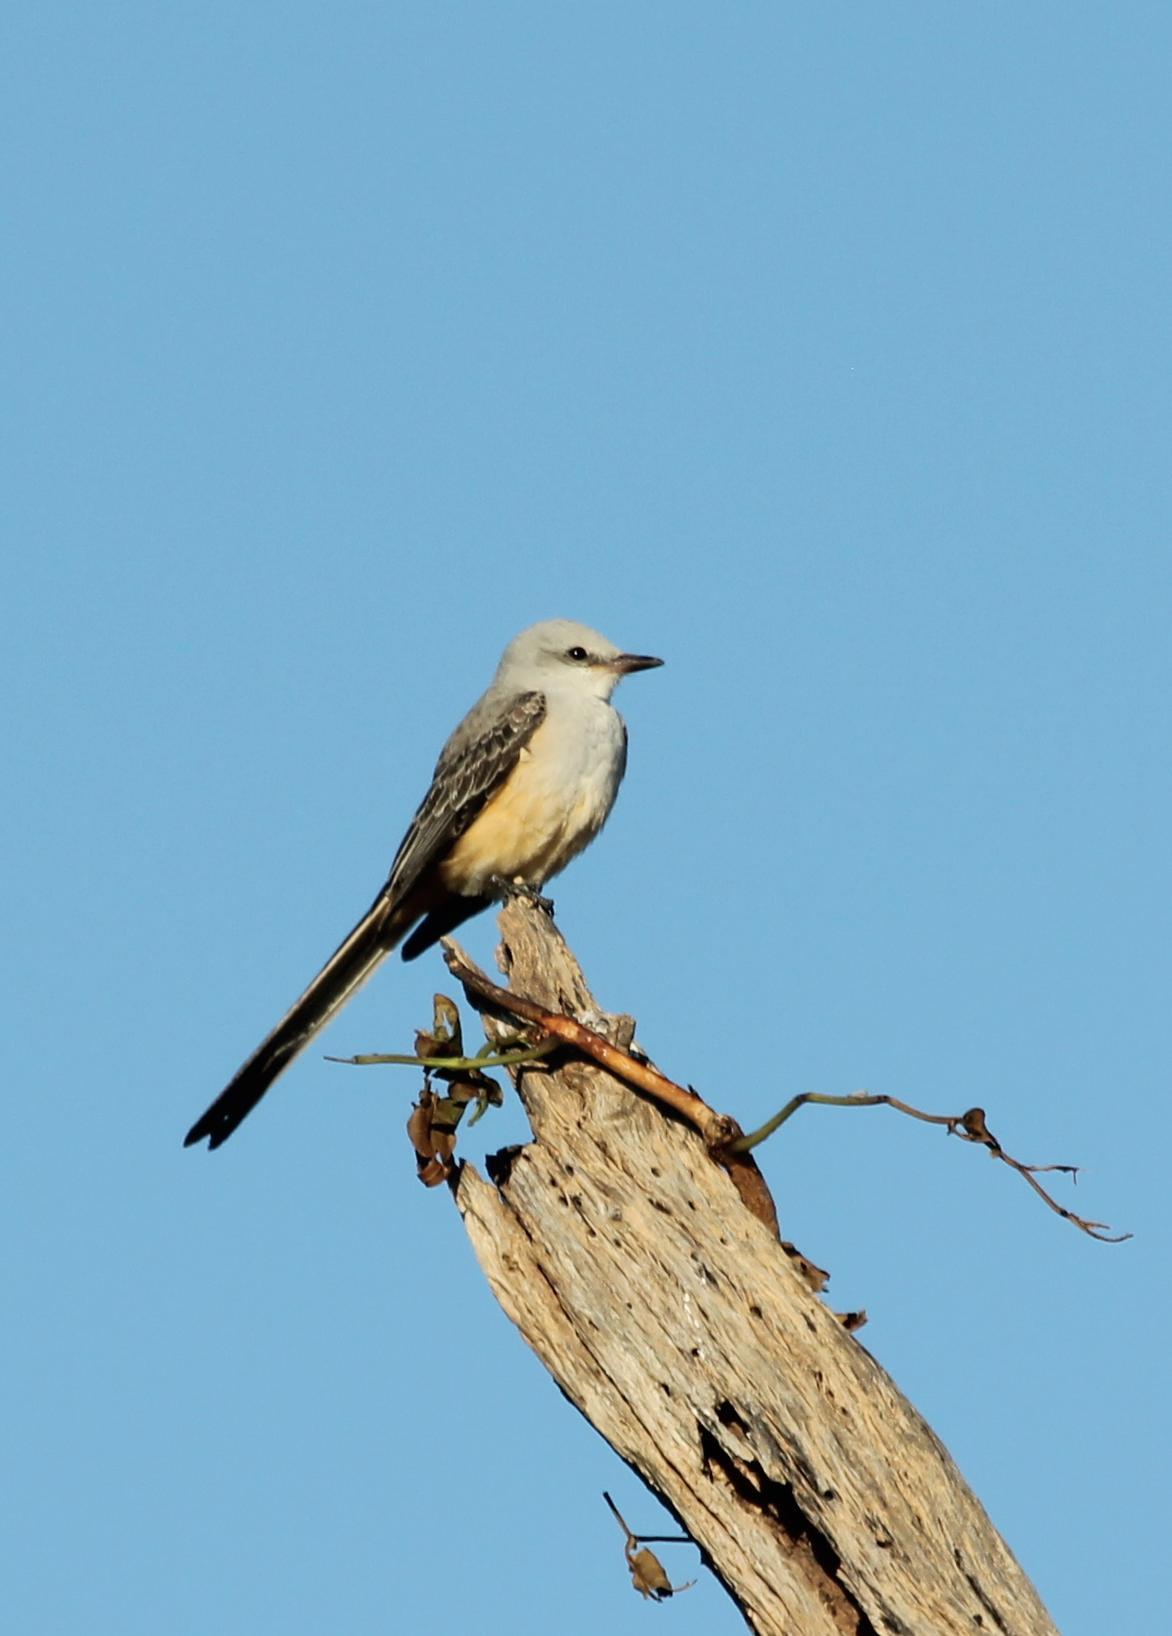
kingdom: Animalia
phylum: Chordata
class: Aves
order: Passeriformes
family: Tyrannidae
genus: Tyrannus
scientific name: Tyrannus forficatus
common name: Scissor-tailed flycatcher
